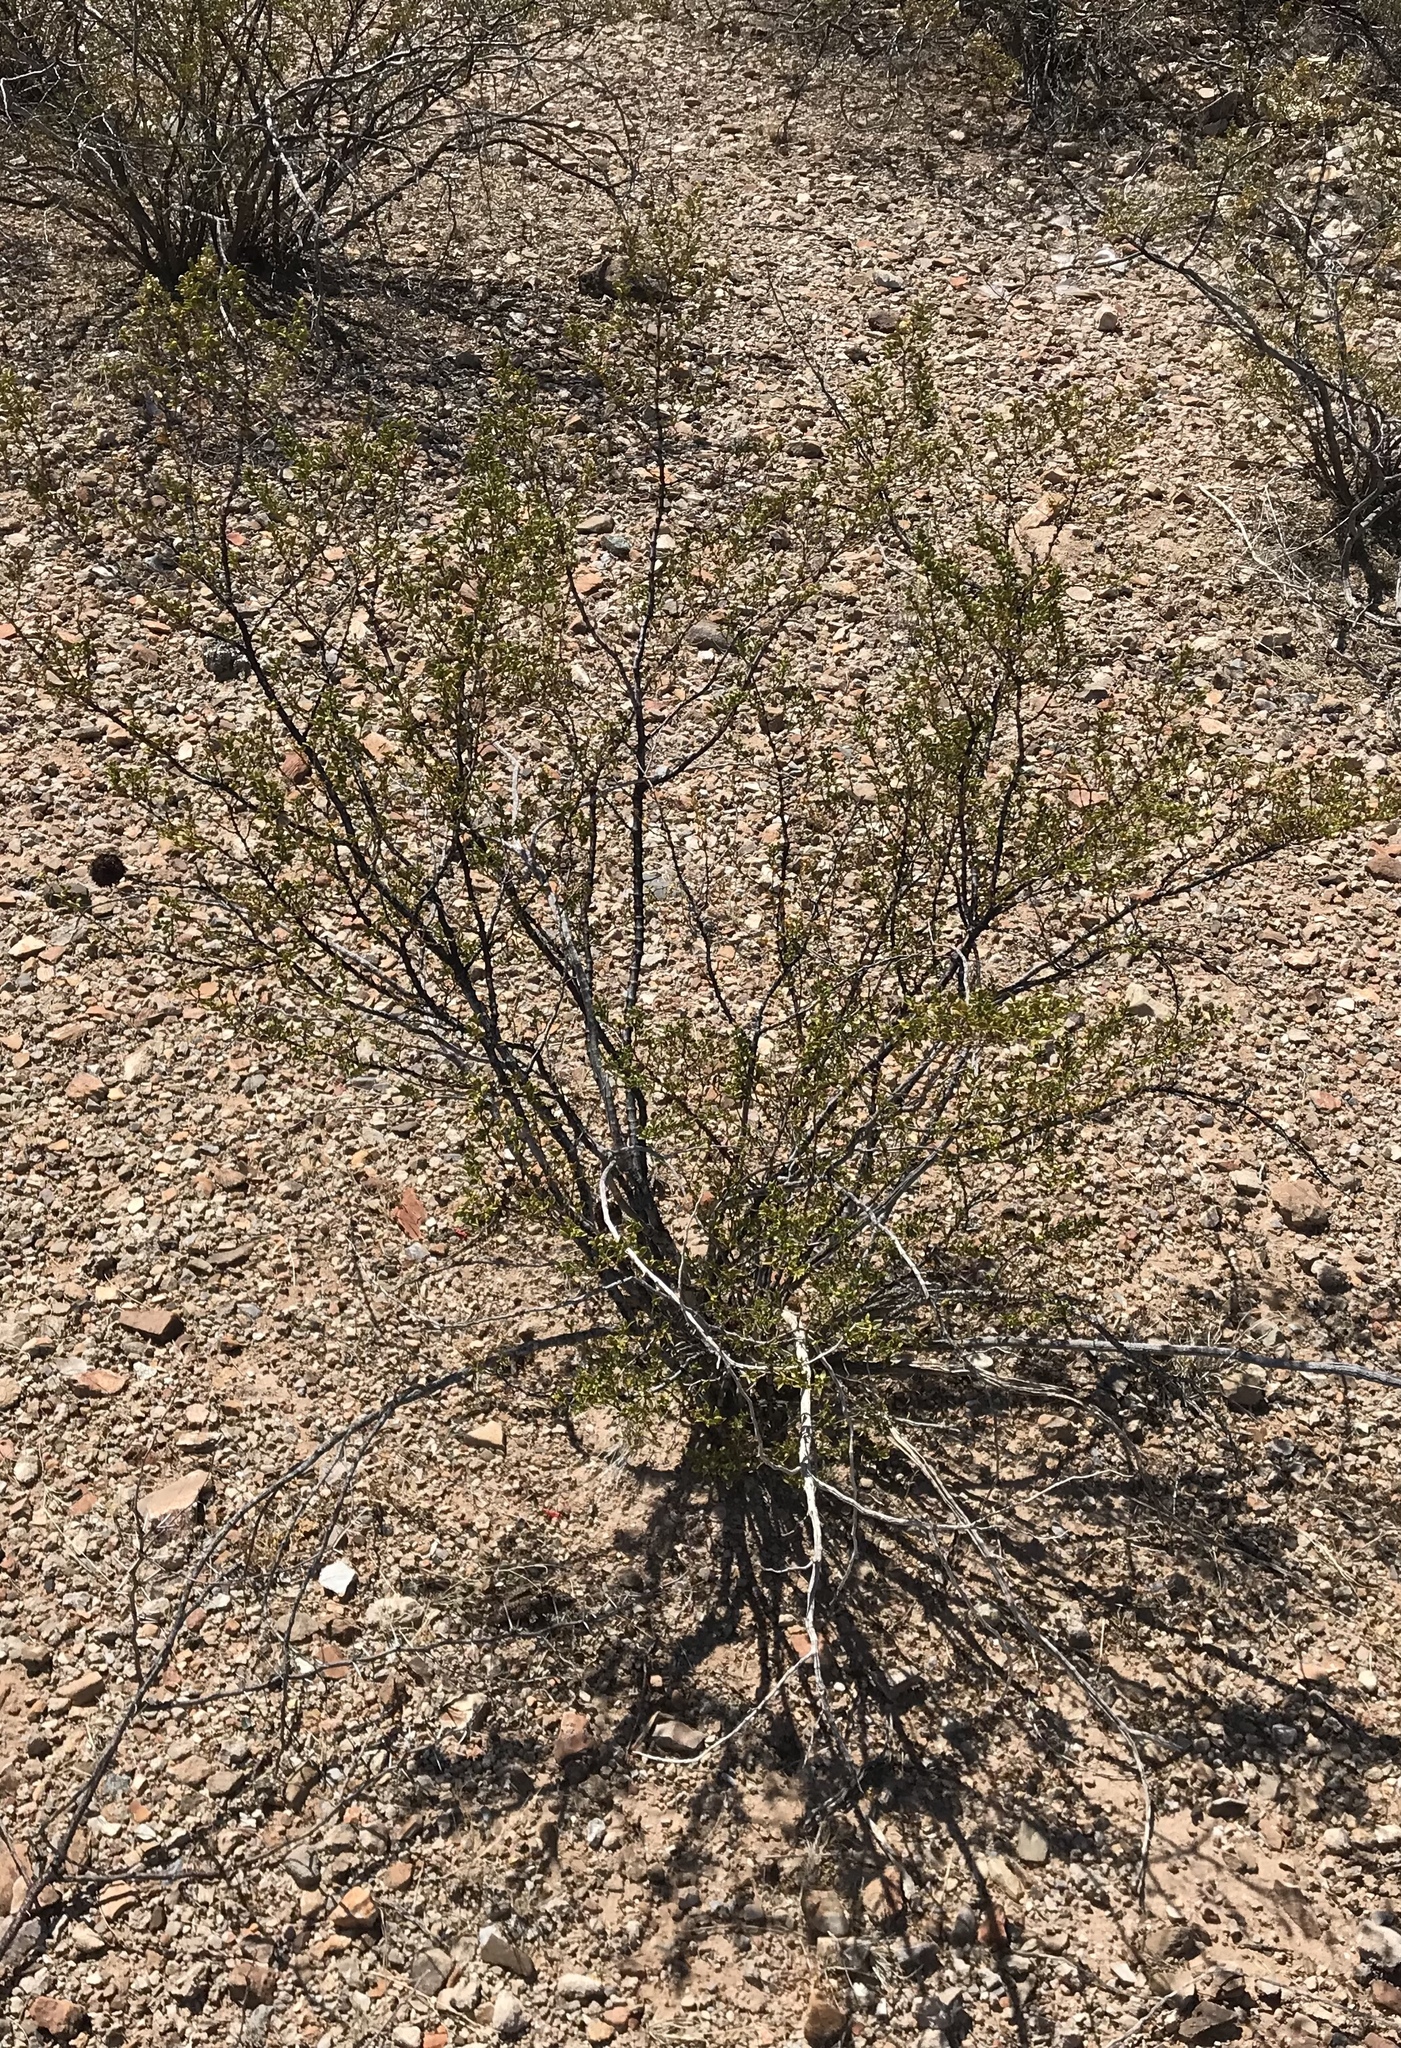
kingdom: Plantae
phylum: Tracheophyta
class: Magnoliopsida
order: Zygophyllales
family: Zygophyllaceae
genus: Larrea
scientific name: Larrea tridentata
